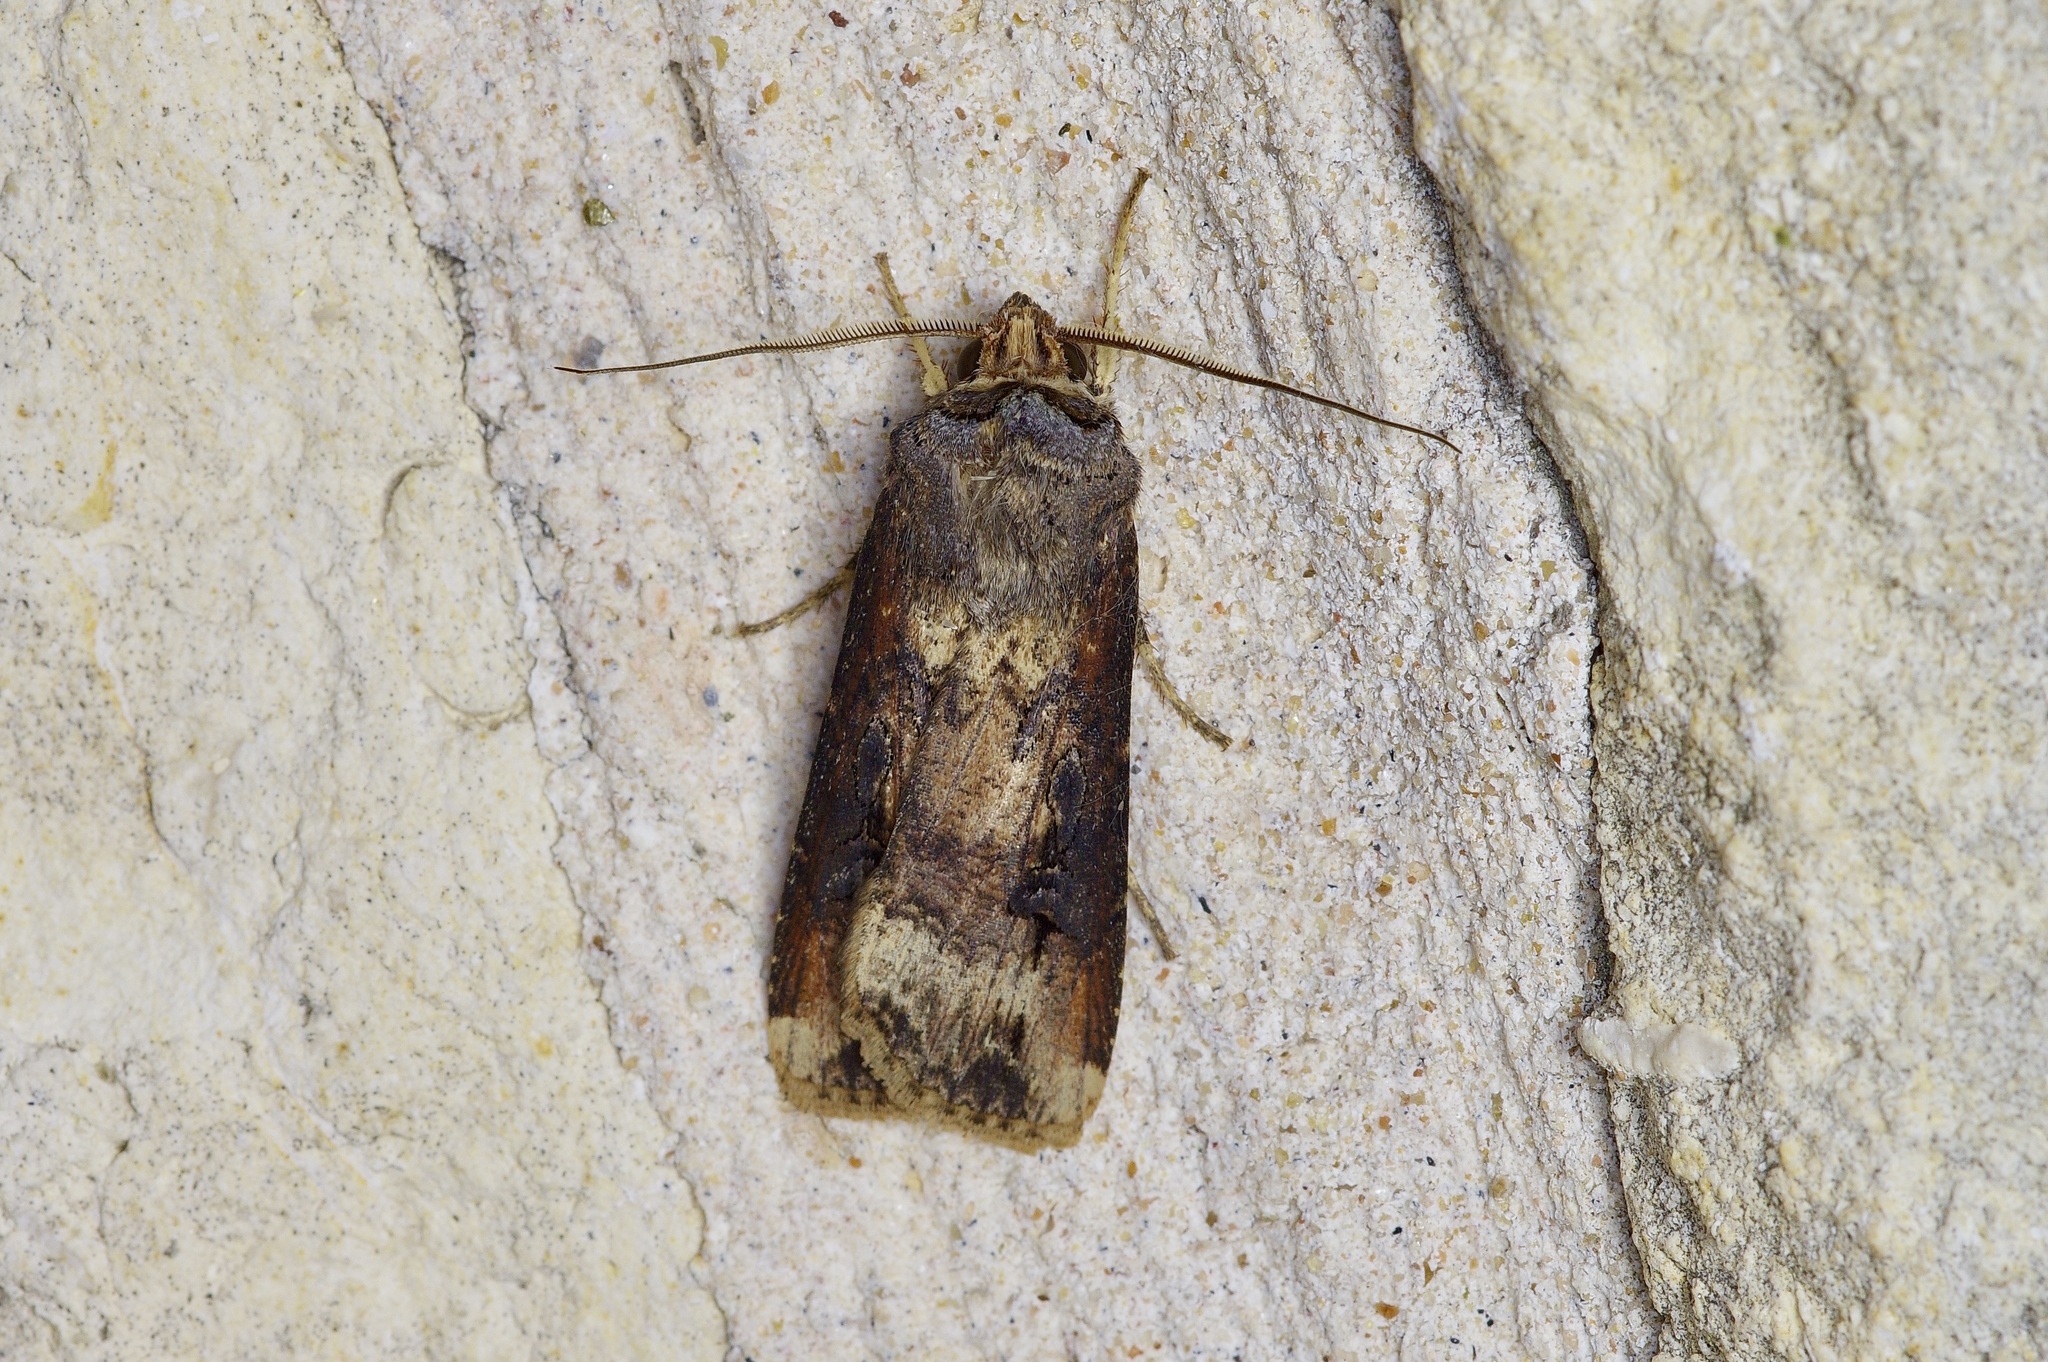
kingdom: Animalia
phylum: Arthropoda
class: Insecta
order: Lepidoptera
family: Noctuidae
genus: Agrotis
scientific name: Agrotis ipsilon
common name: Dark sword-grass
